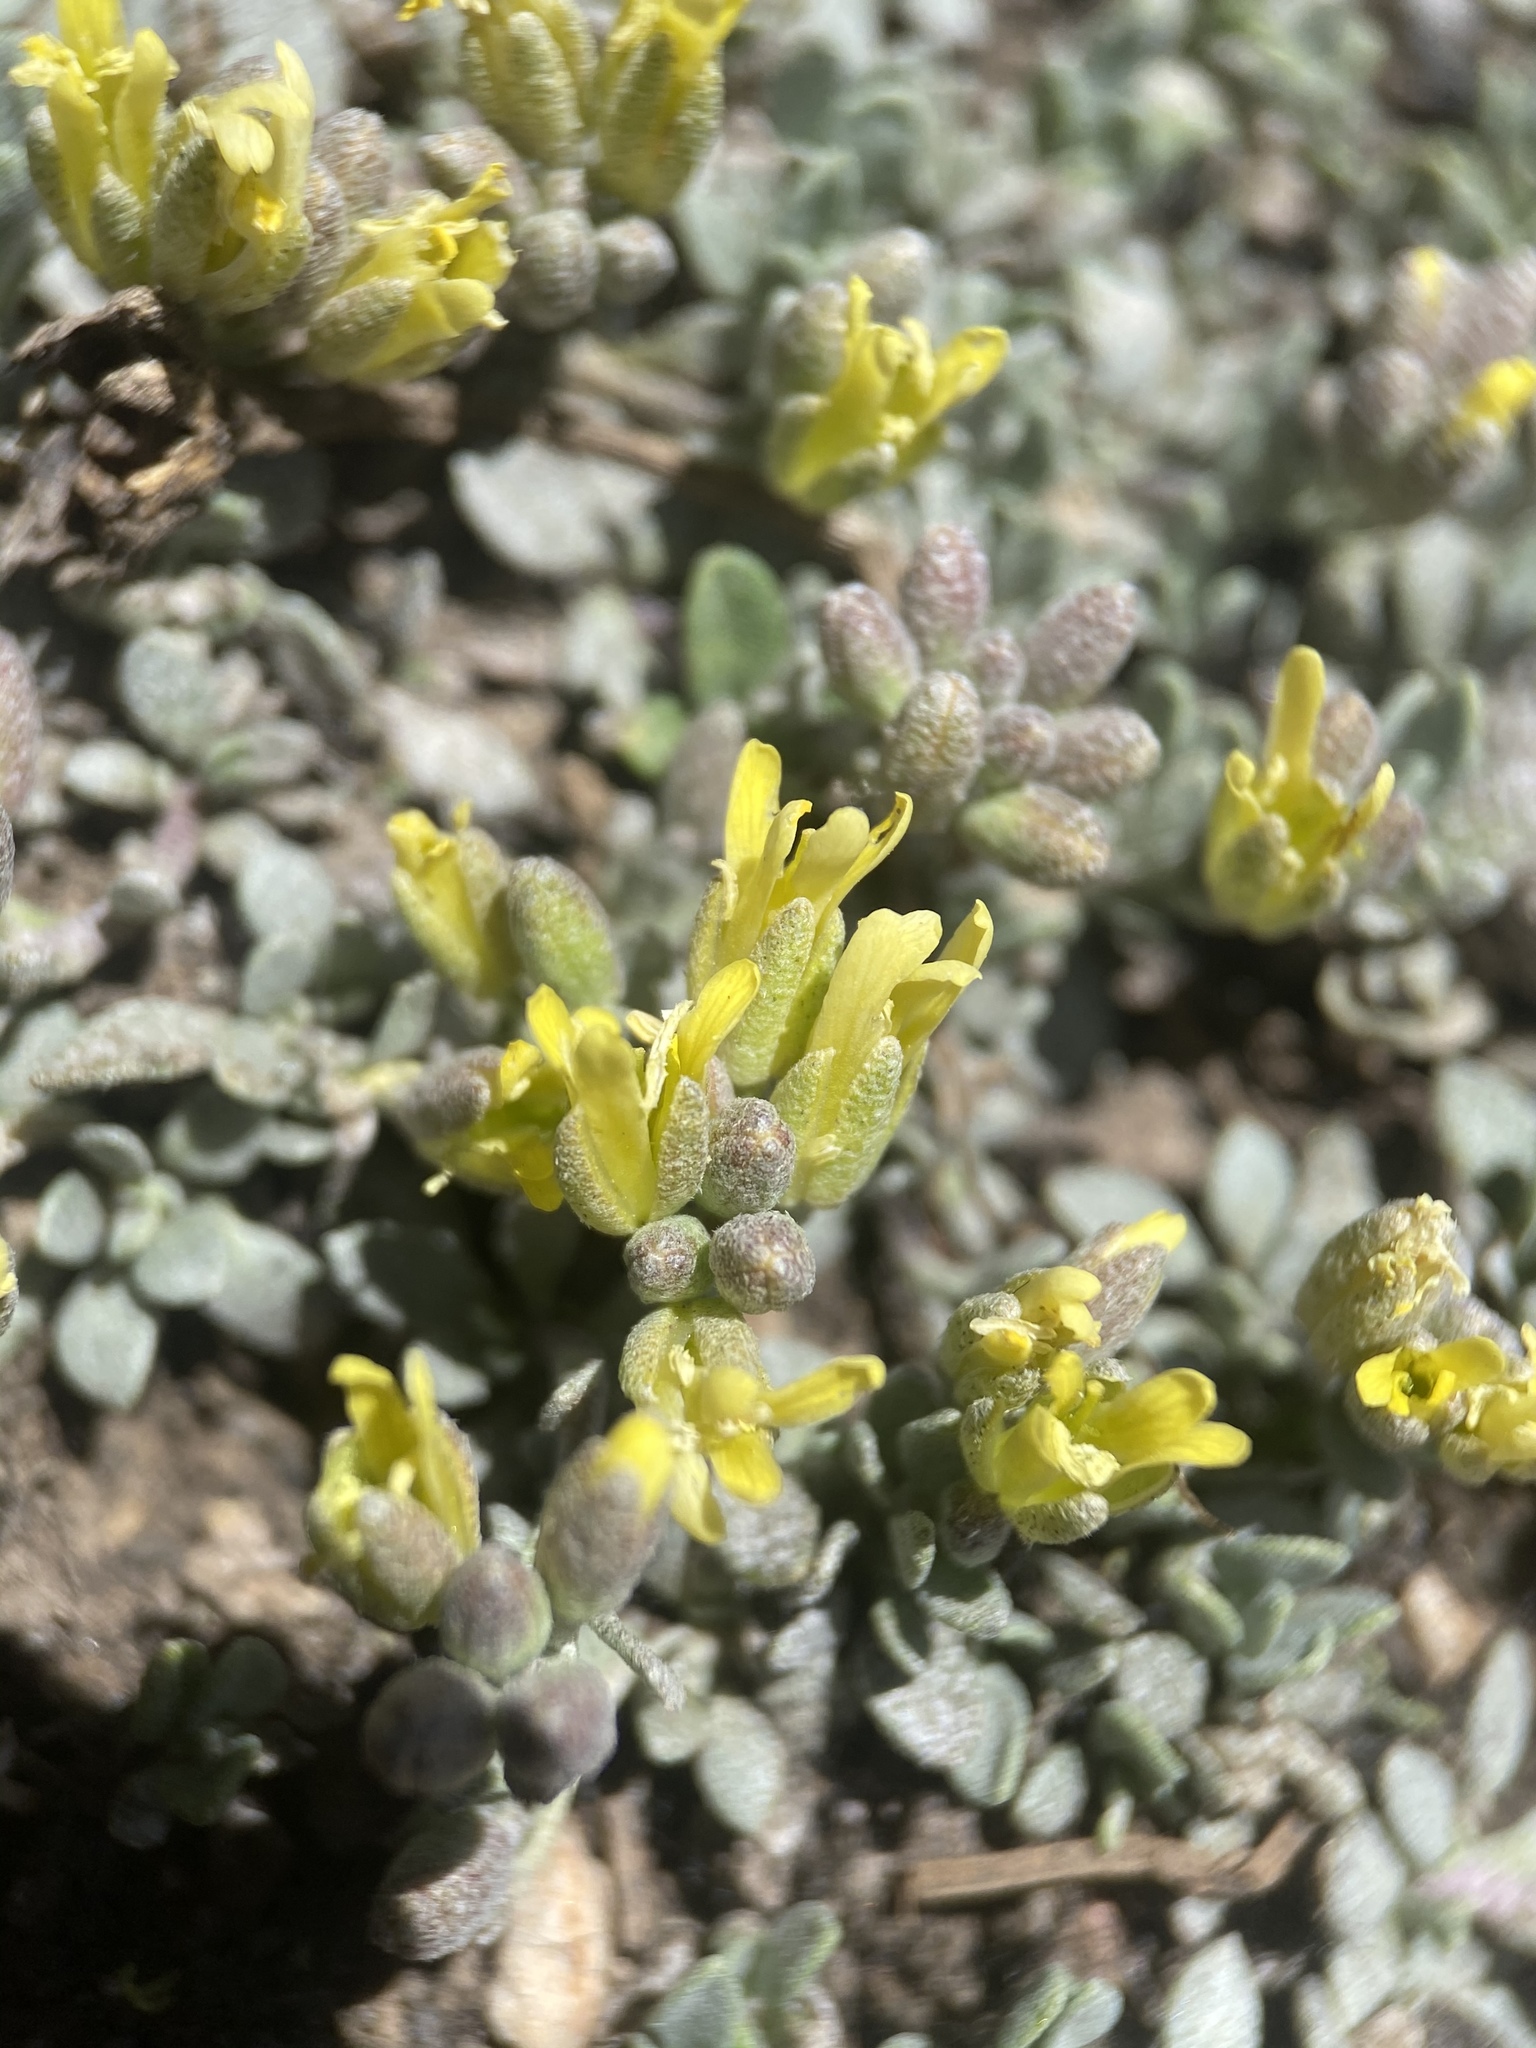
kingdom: Plantae
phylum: Tracheophyta
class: Magnoliopsida
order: Brassicales
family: Brassicaceae
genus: Physaria
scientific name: Physaria hitchcockii
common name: Hitchcock's bladderpod
